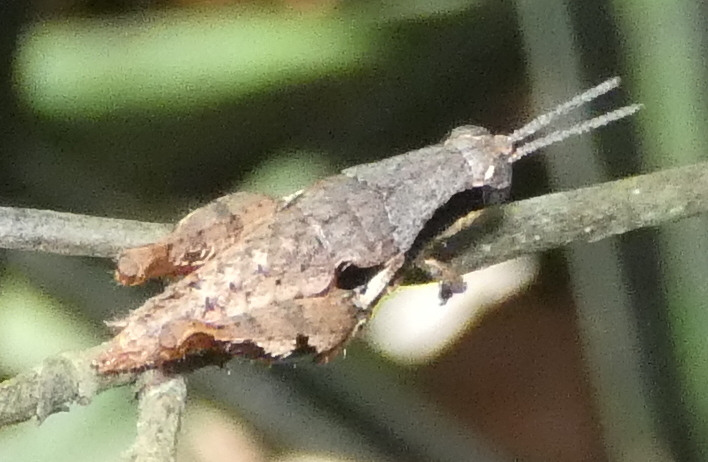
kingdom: Animalia
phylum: Arthropoda
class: Insecta
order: Orthoptera
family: Acrididae
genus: Eujivarus
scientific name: Eujivarus meridionalis
